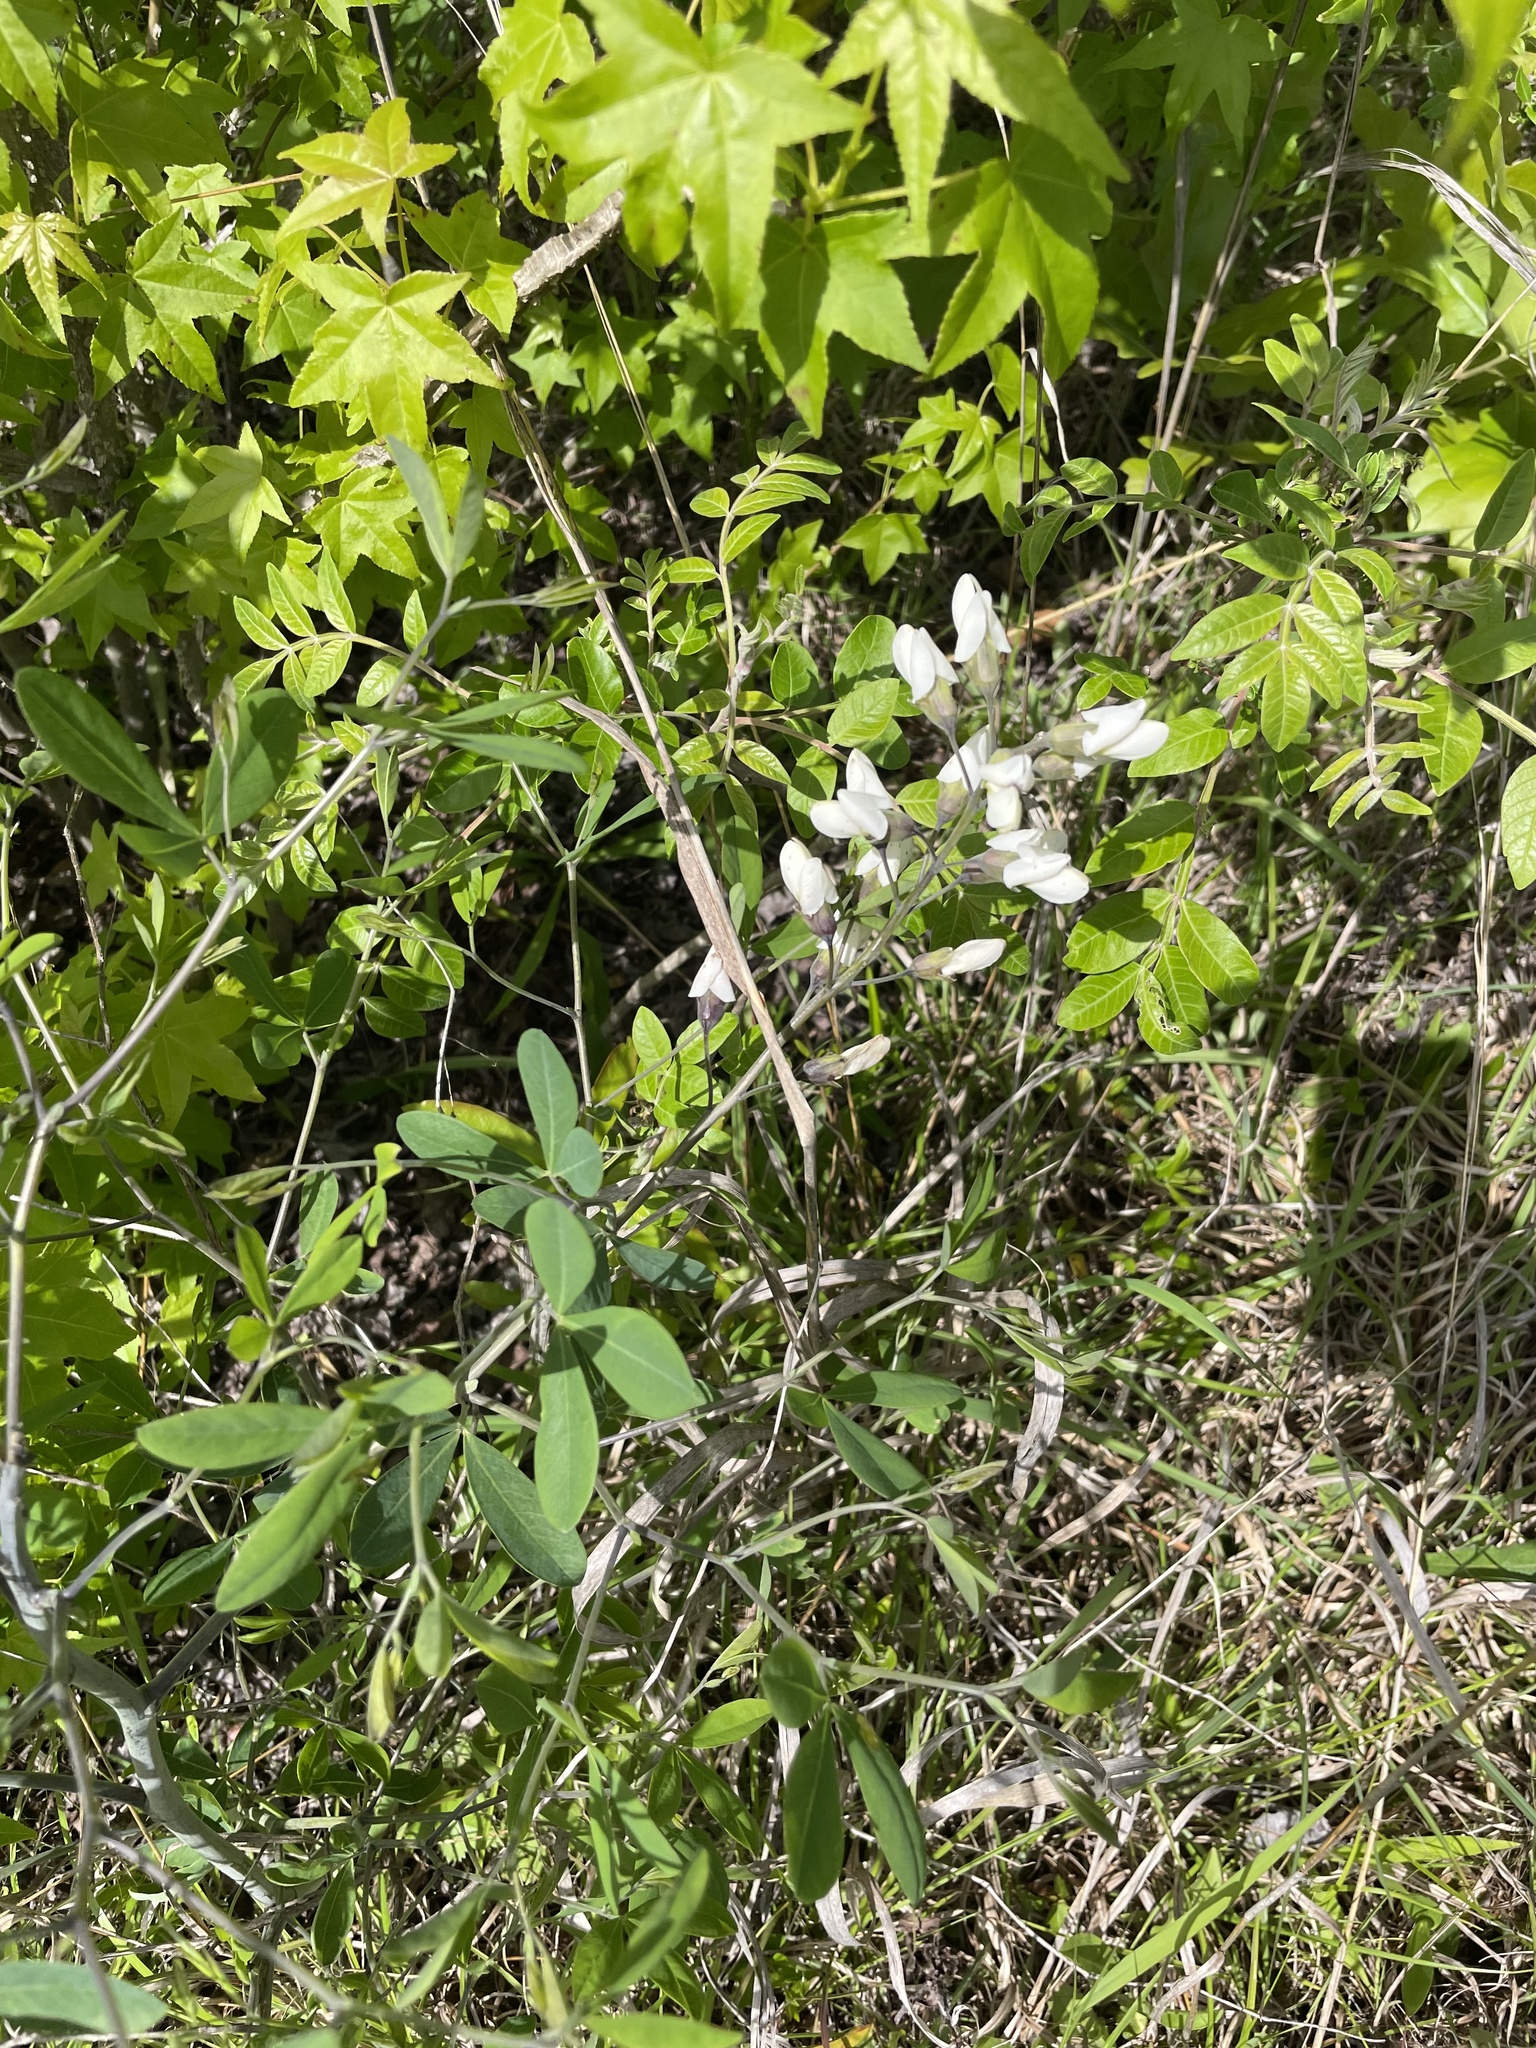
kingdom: Plantae
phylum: Tracheophyta
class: Magnoliopsida
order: Fabales
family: Fabaceae
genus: Baptisia
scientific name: Baptisia alba
